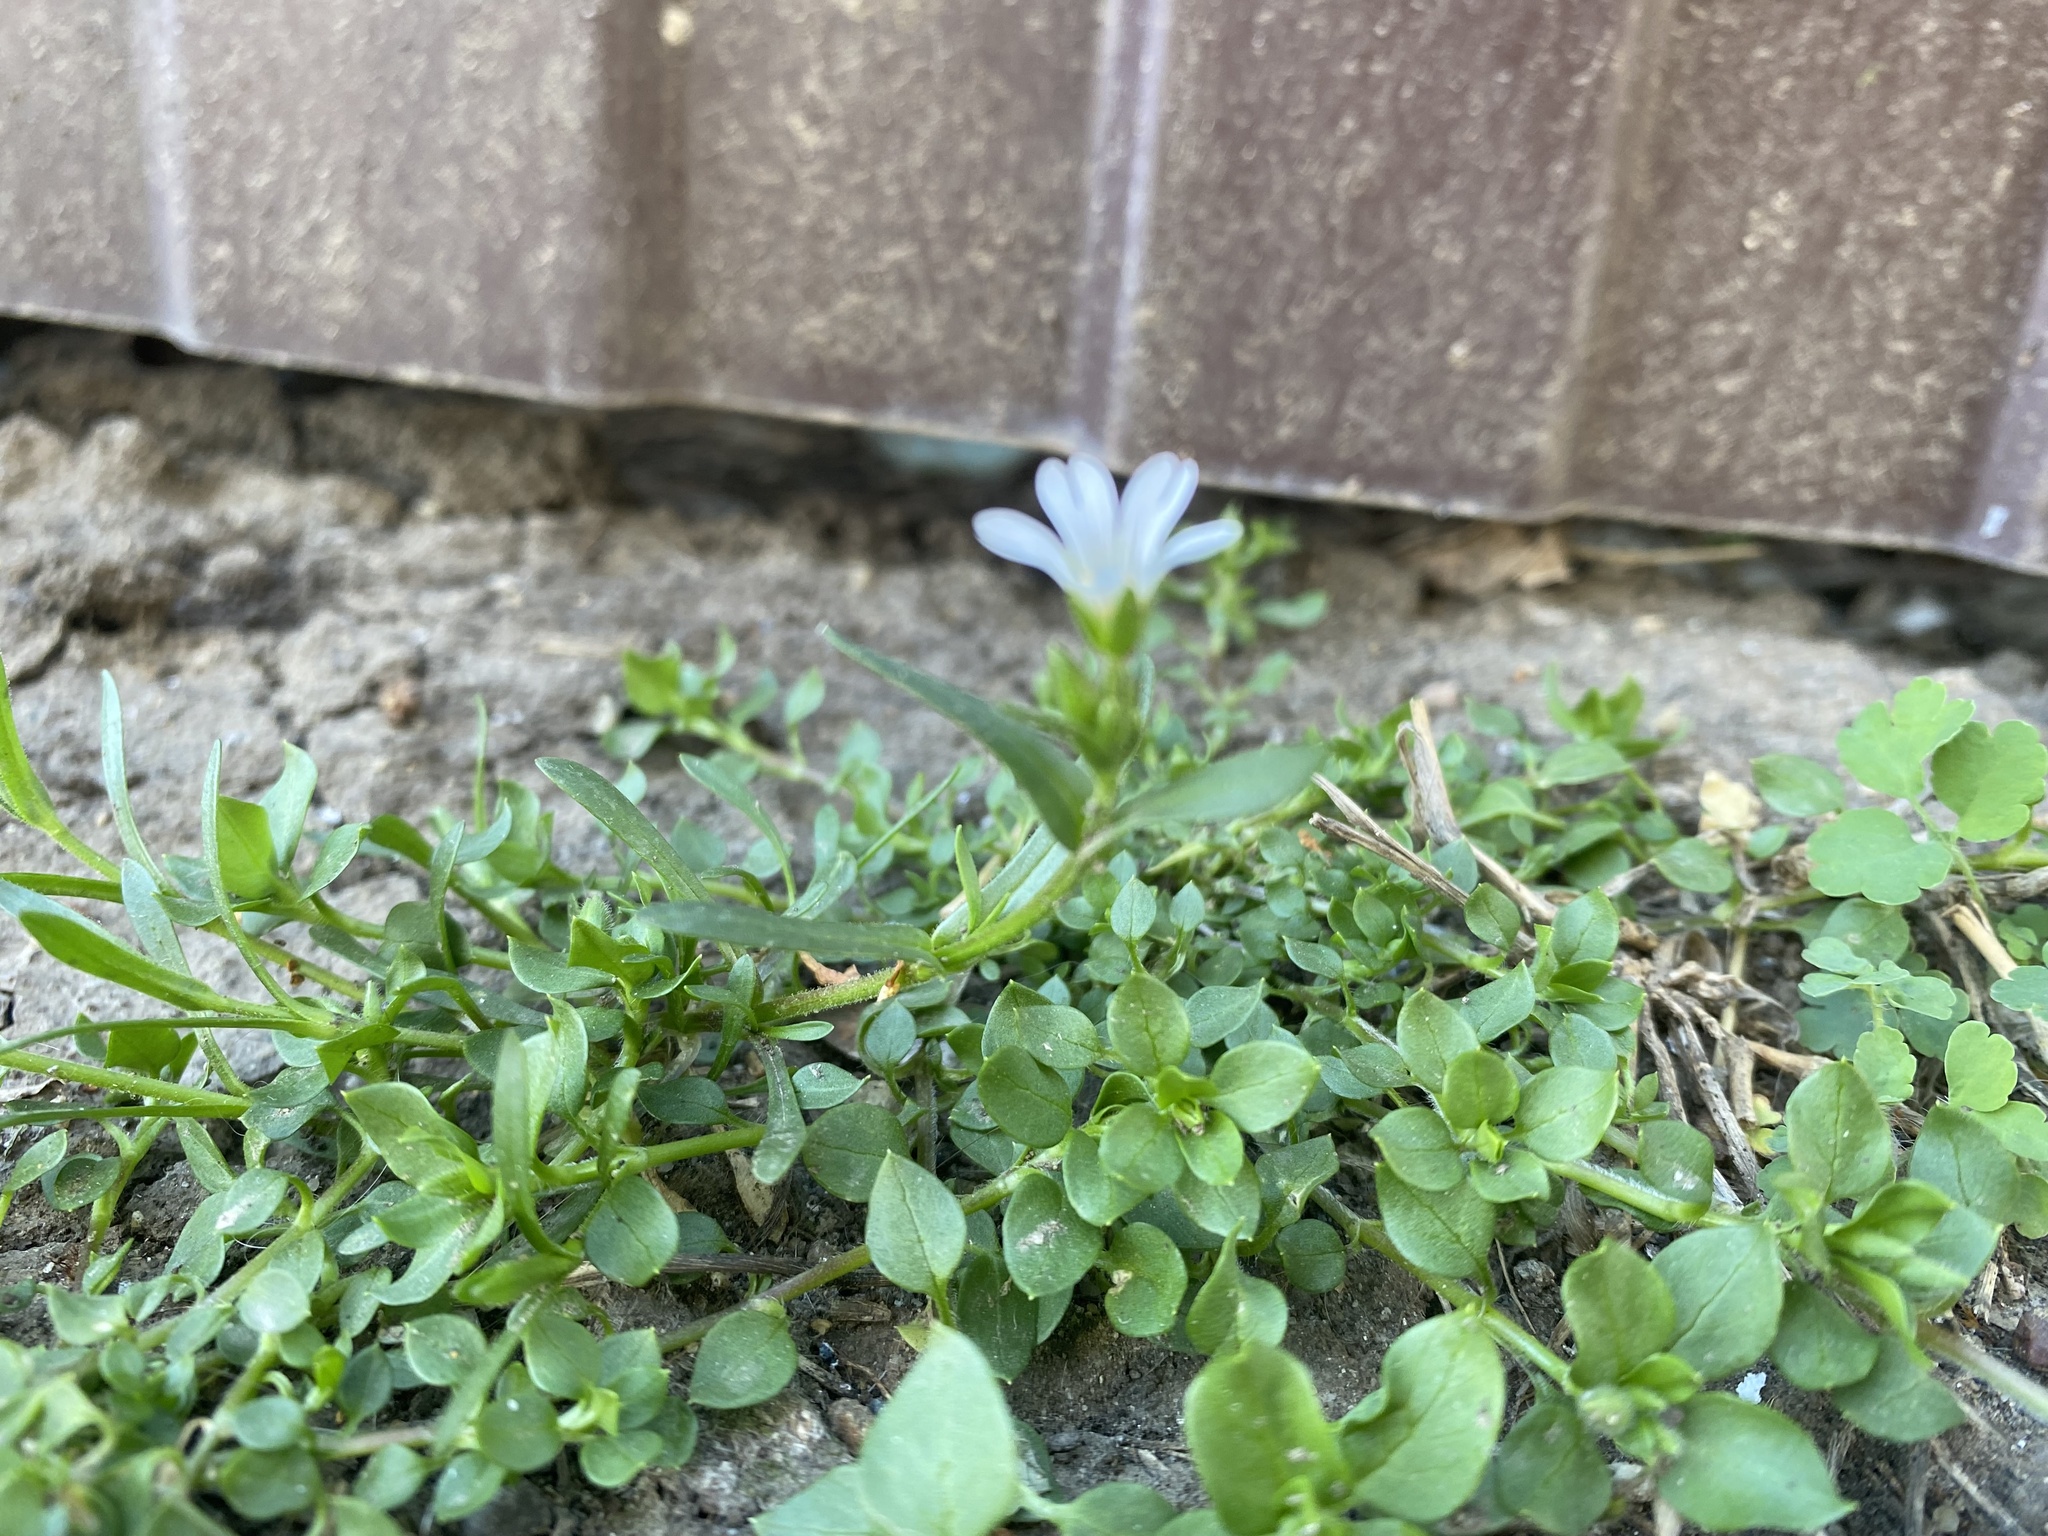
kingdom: Plantae
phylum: Tracheophyta
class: Magnoliopsida
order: Caryophyllales
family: Caryophyllaceae
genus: Dichodon
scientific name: Dichodon viscidum
